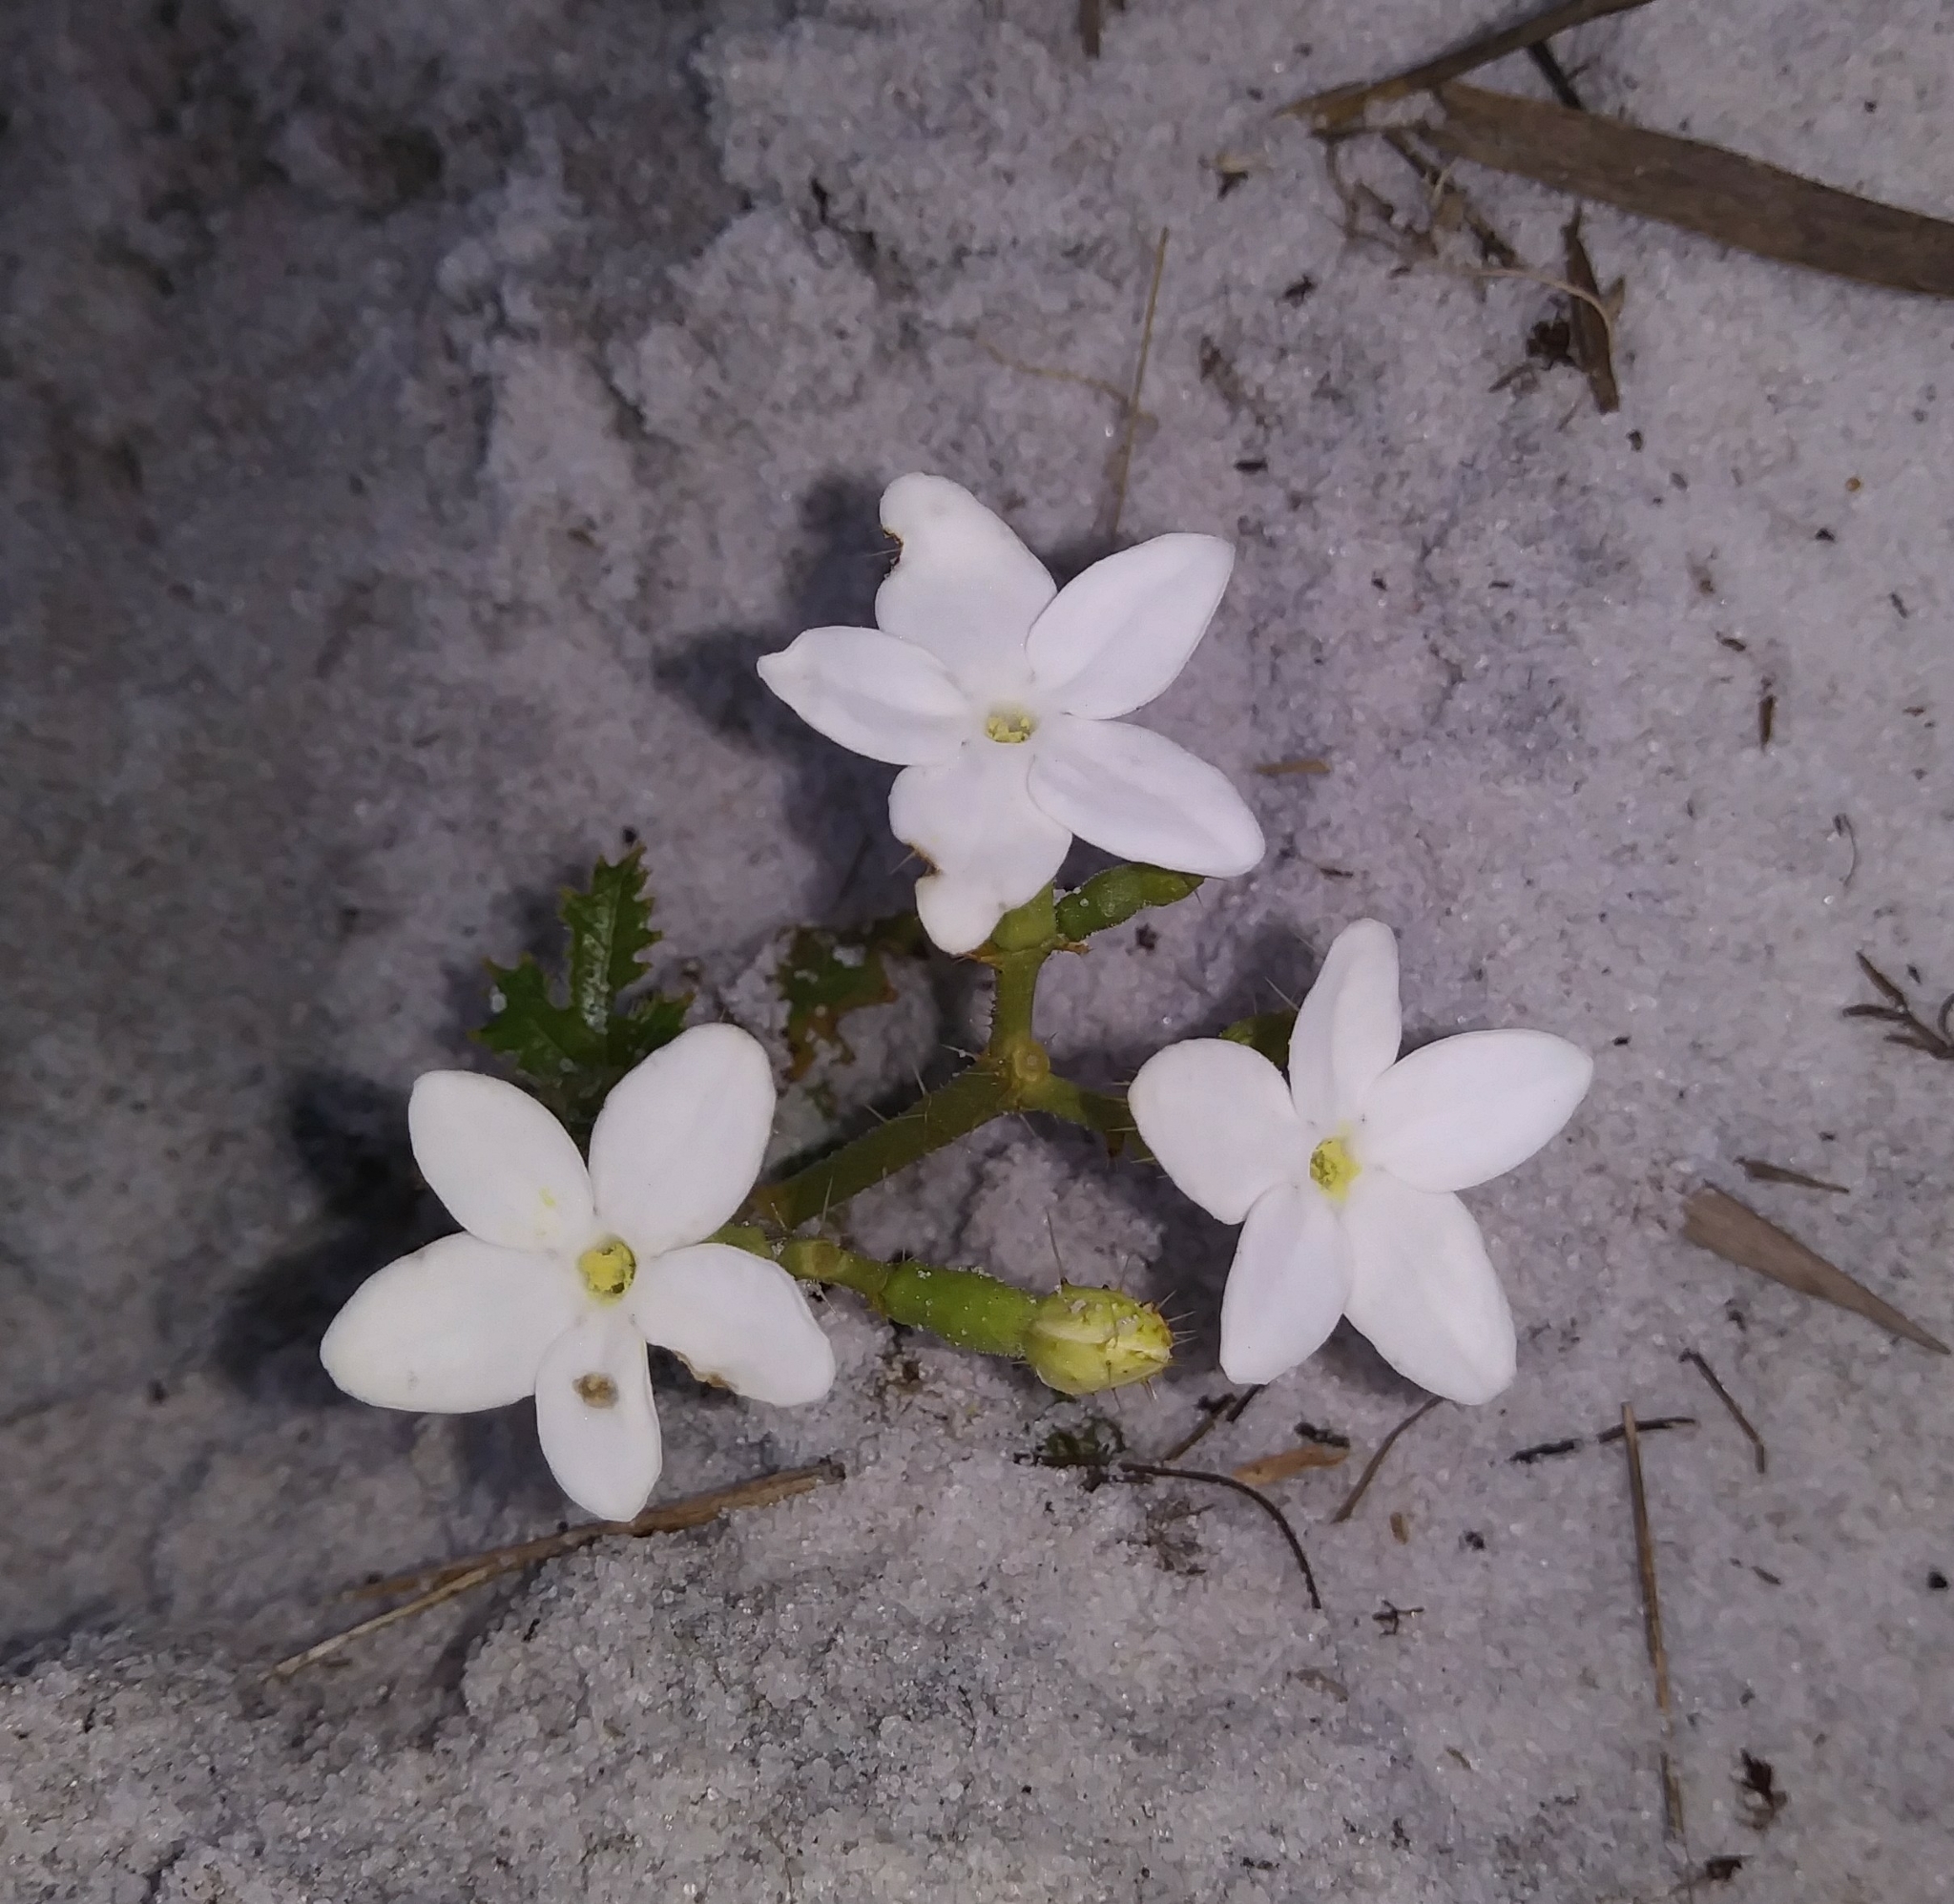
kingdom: Plantae
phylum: Tracheophyta
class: Magnoliopsida
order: Malpighiales
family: Euphorbiaceae
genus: Cnidoscolus
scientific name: Cnidoscolus stimulosus
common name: Bull-nettle
